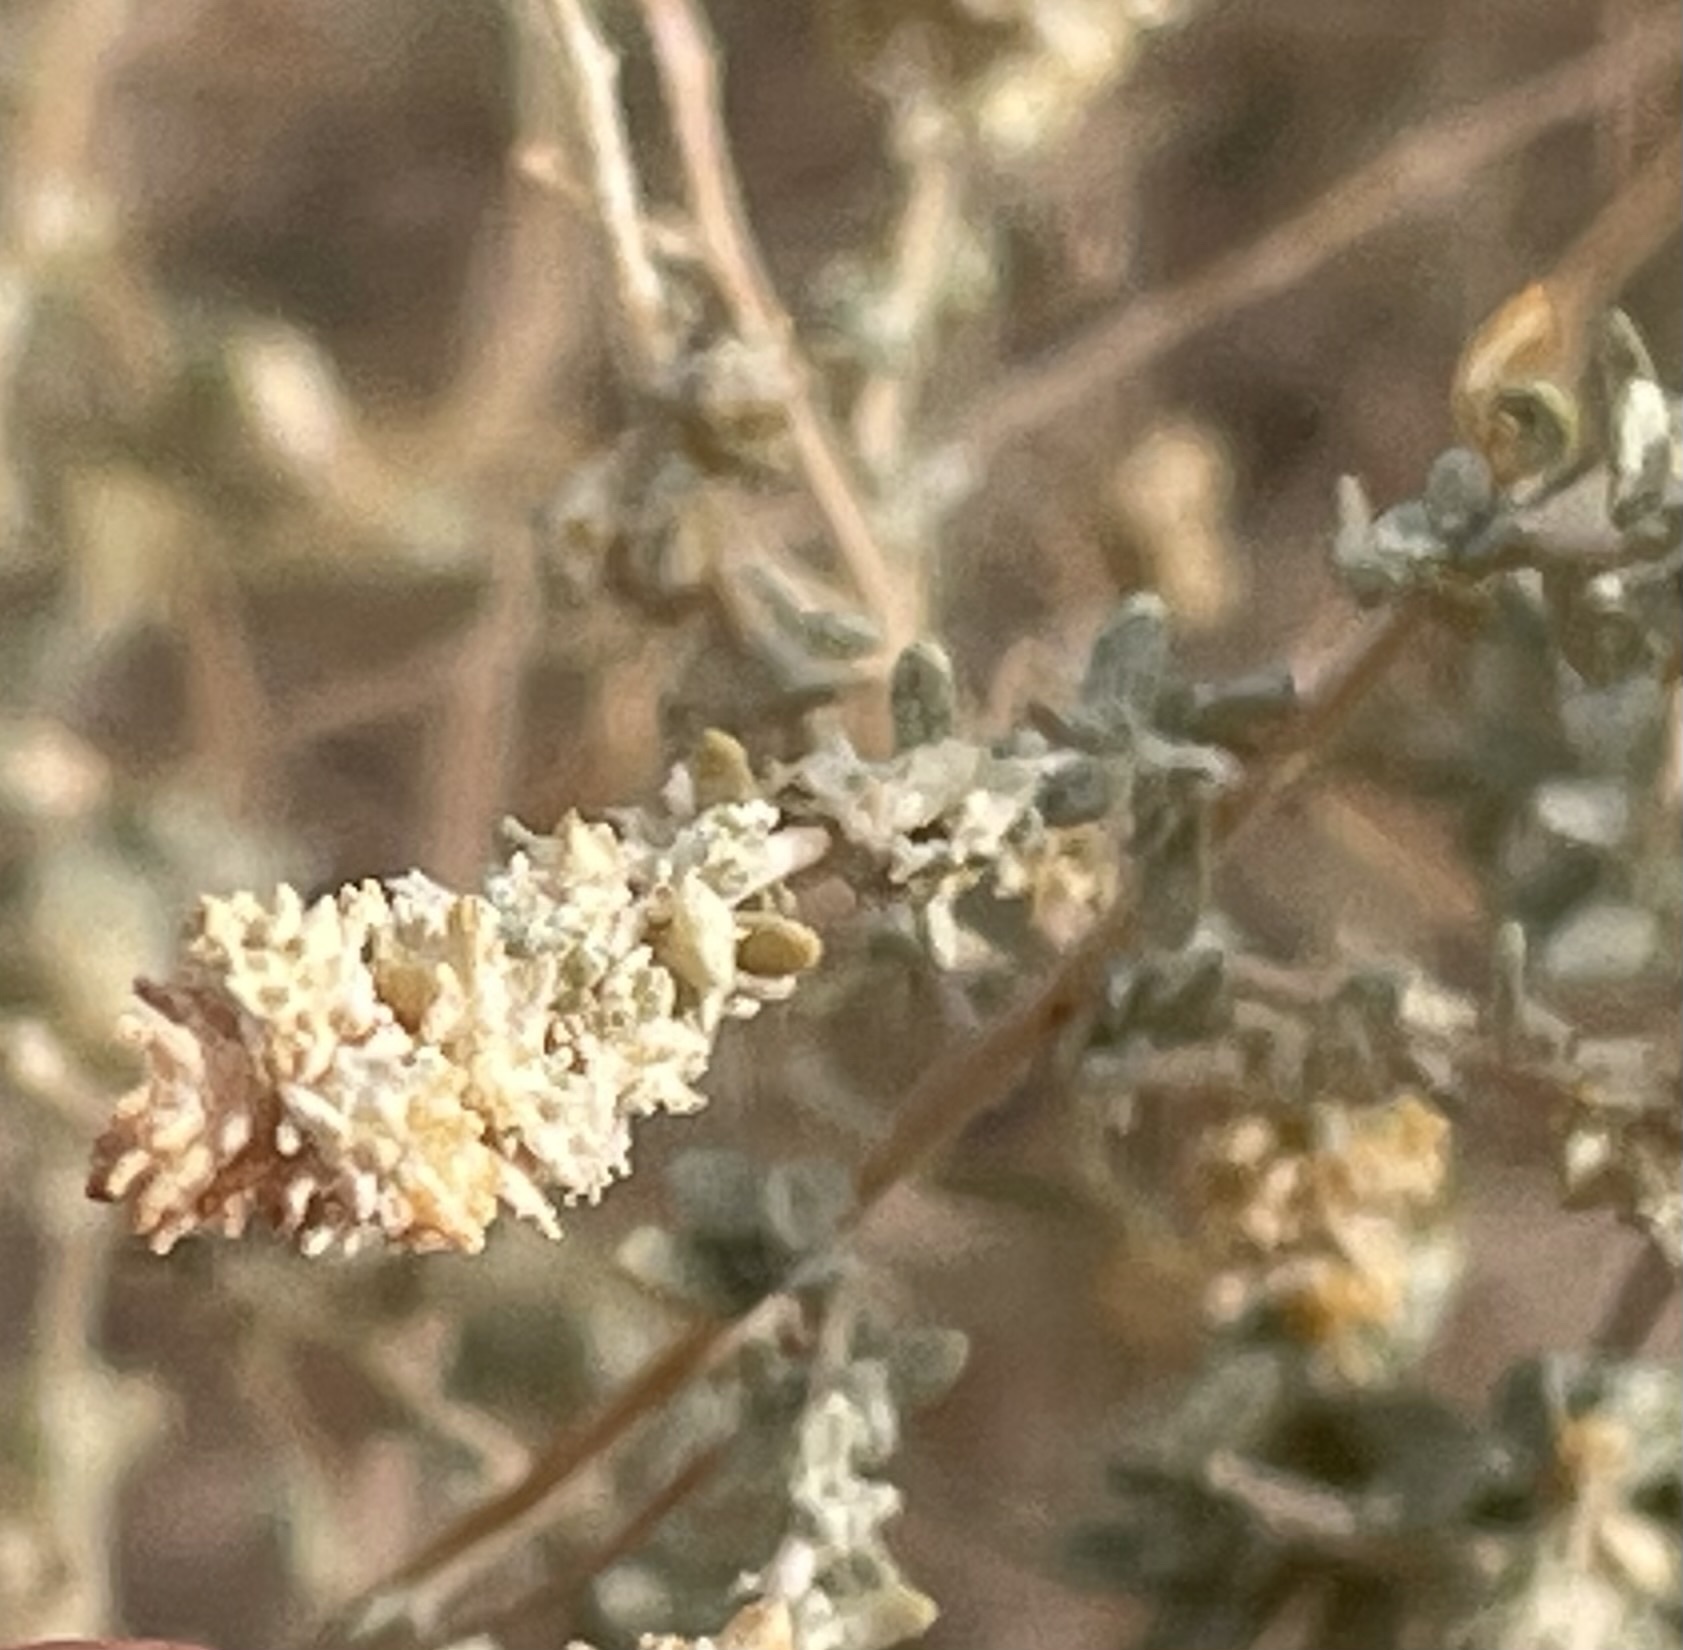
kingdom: Plantae
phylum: Tracheophyta
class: Magnoliopsida
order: Caryophyllales
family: Amaranthaceae
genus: Atriplex
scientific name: Atriplex polycarpa
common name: Desert saltbush
